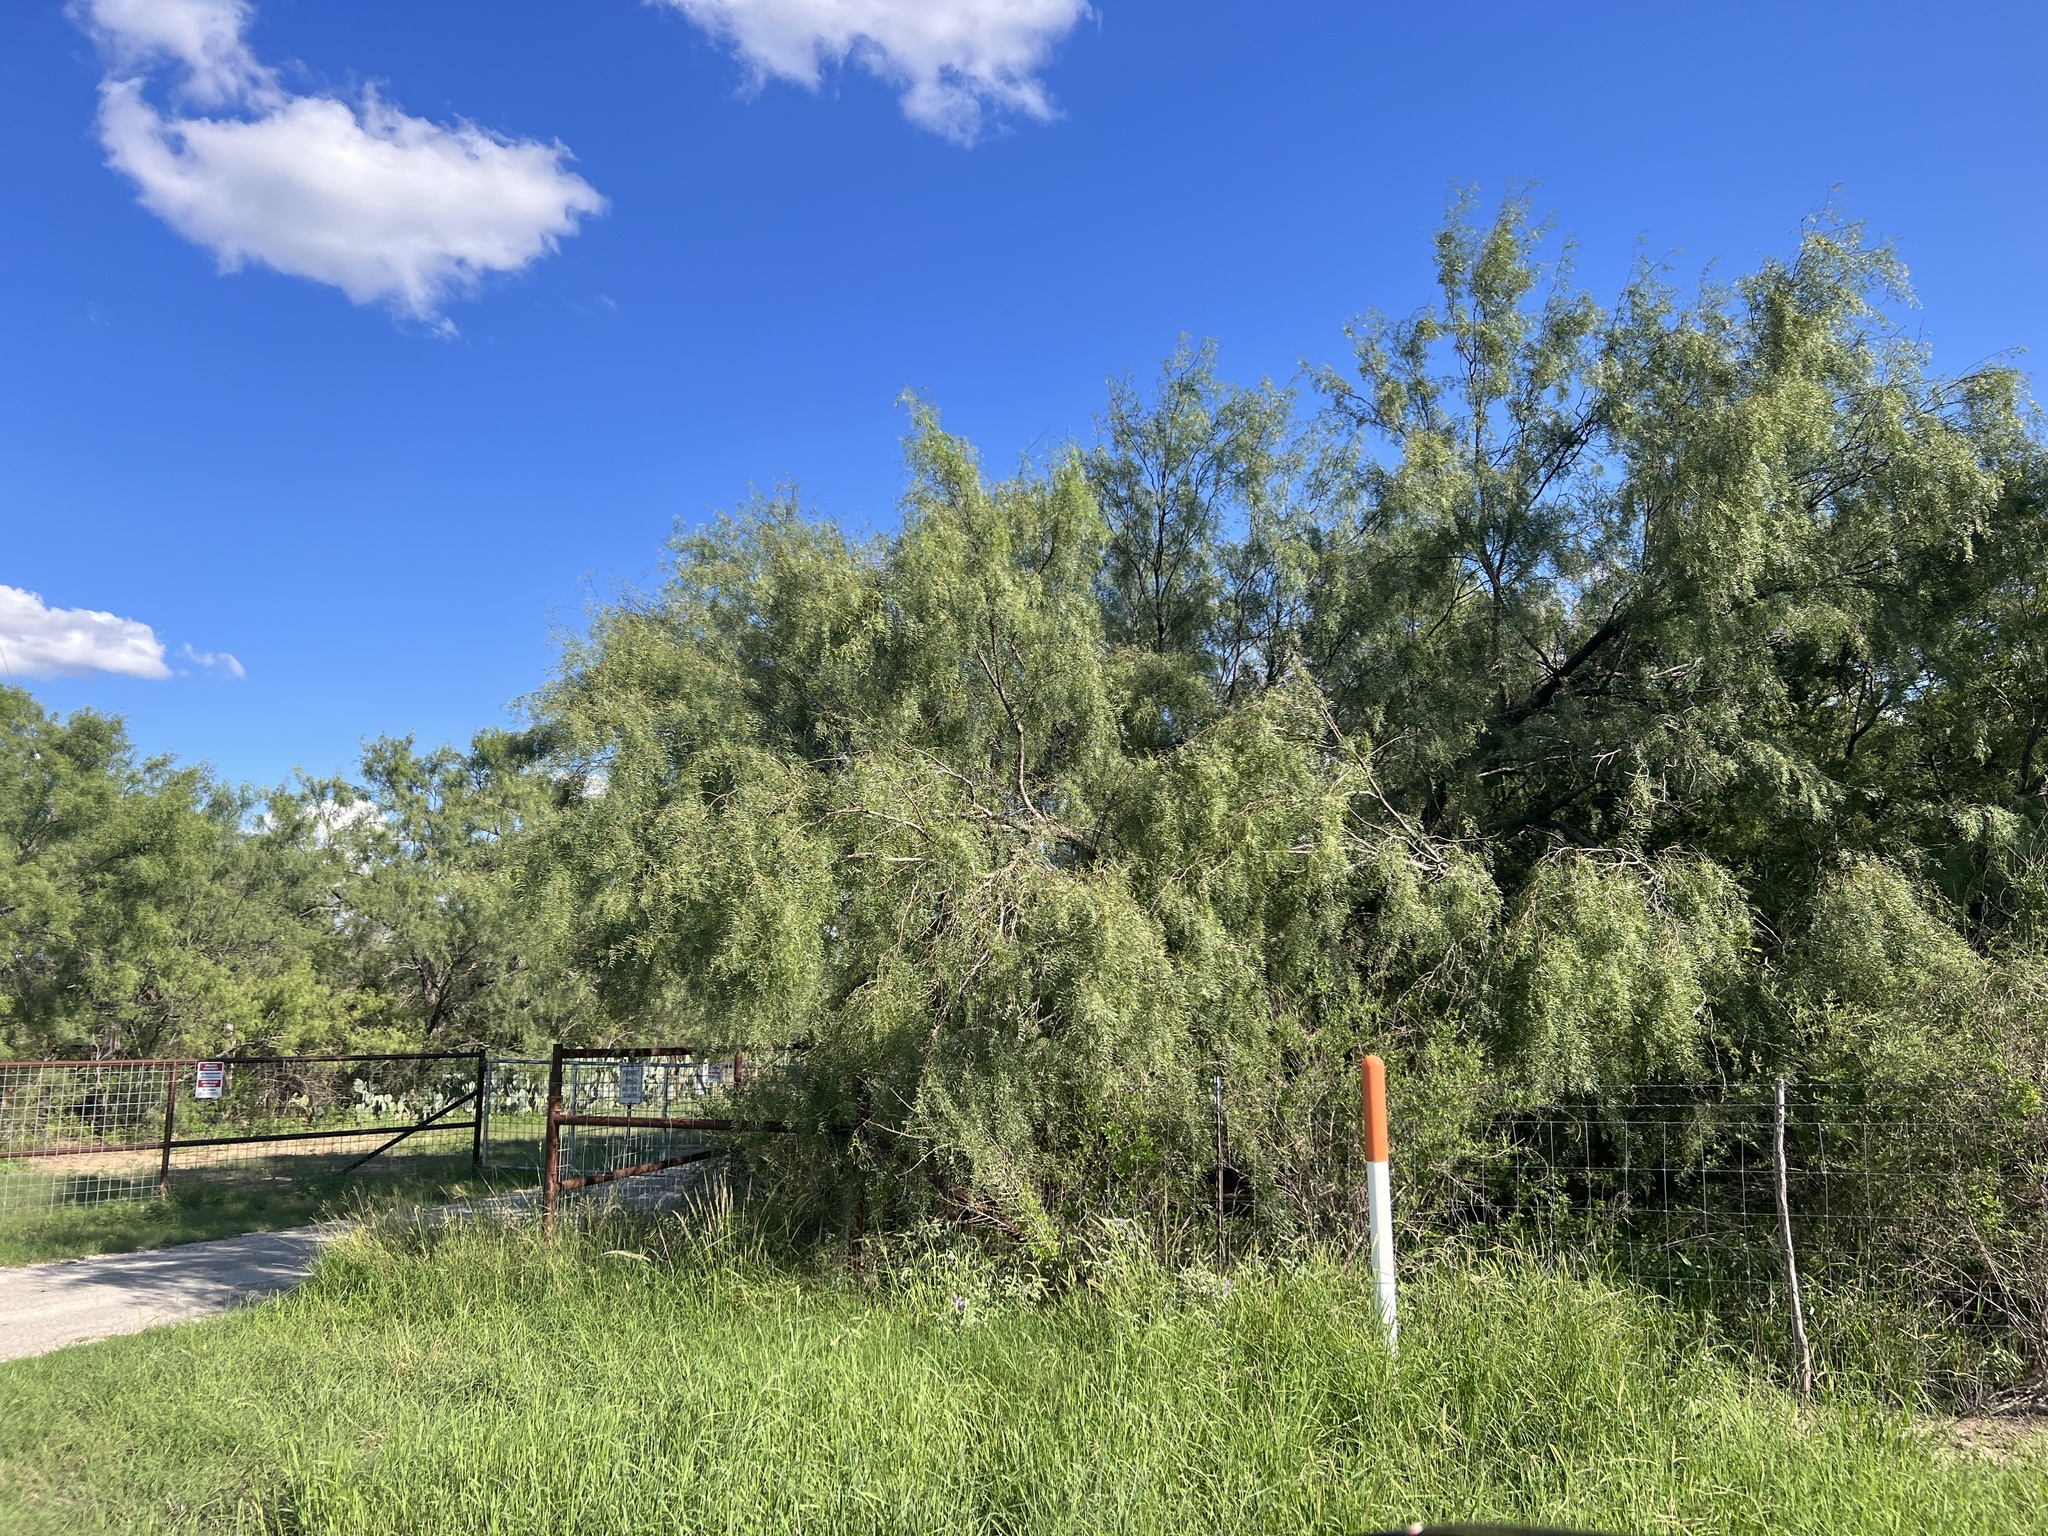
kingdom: Plantae
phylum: Tracheophyta
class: Magnoliopsida
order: Fabales
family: Fabaceae
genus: Prosopis
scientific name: Prosopis glandulosa
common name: Honey mesquite
